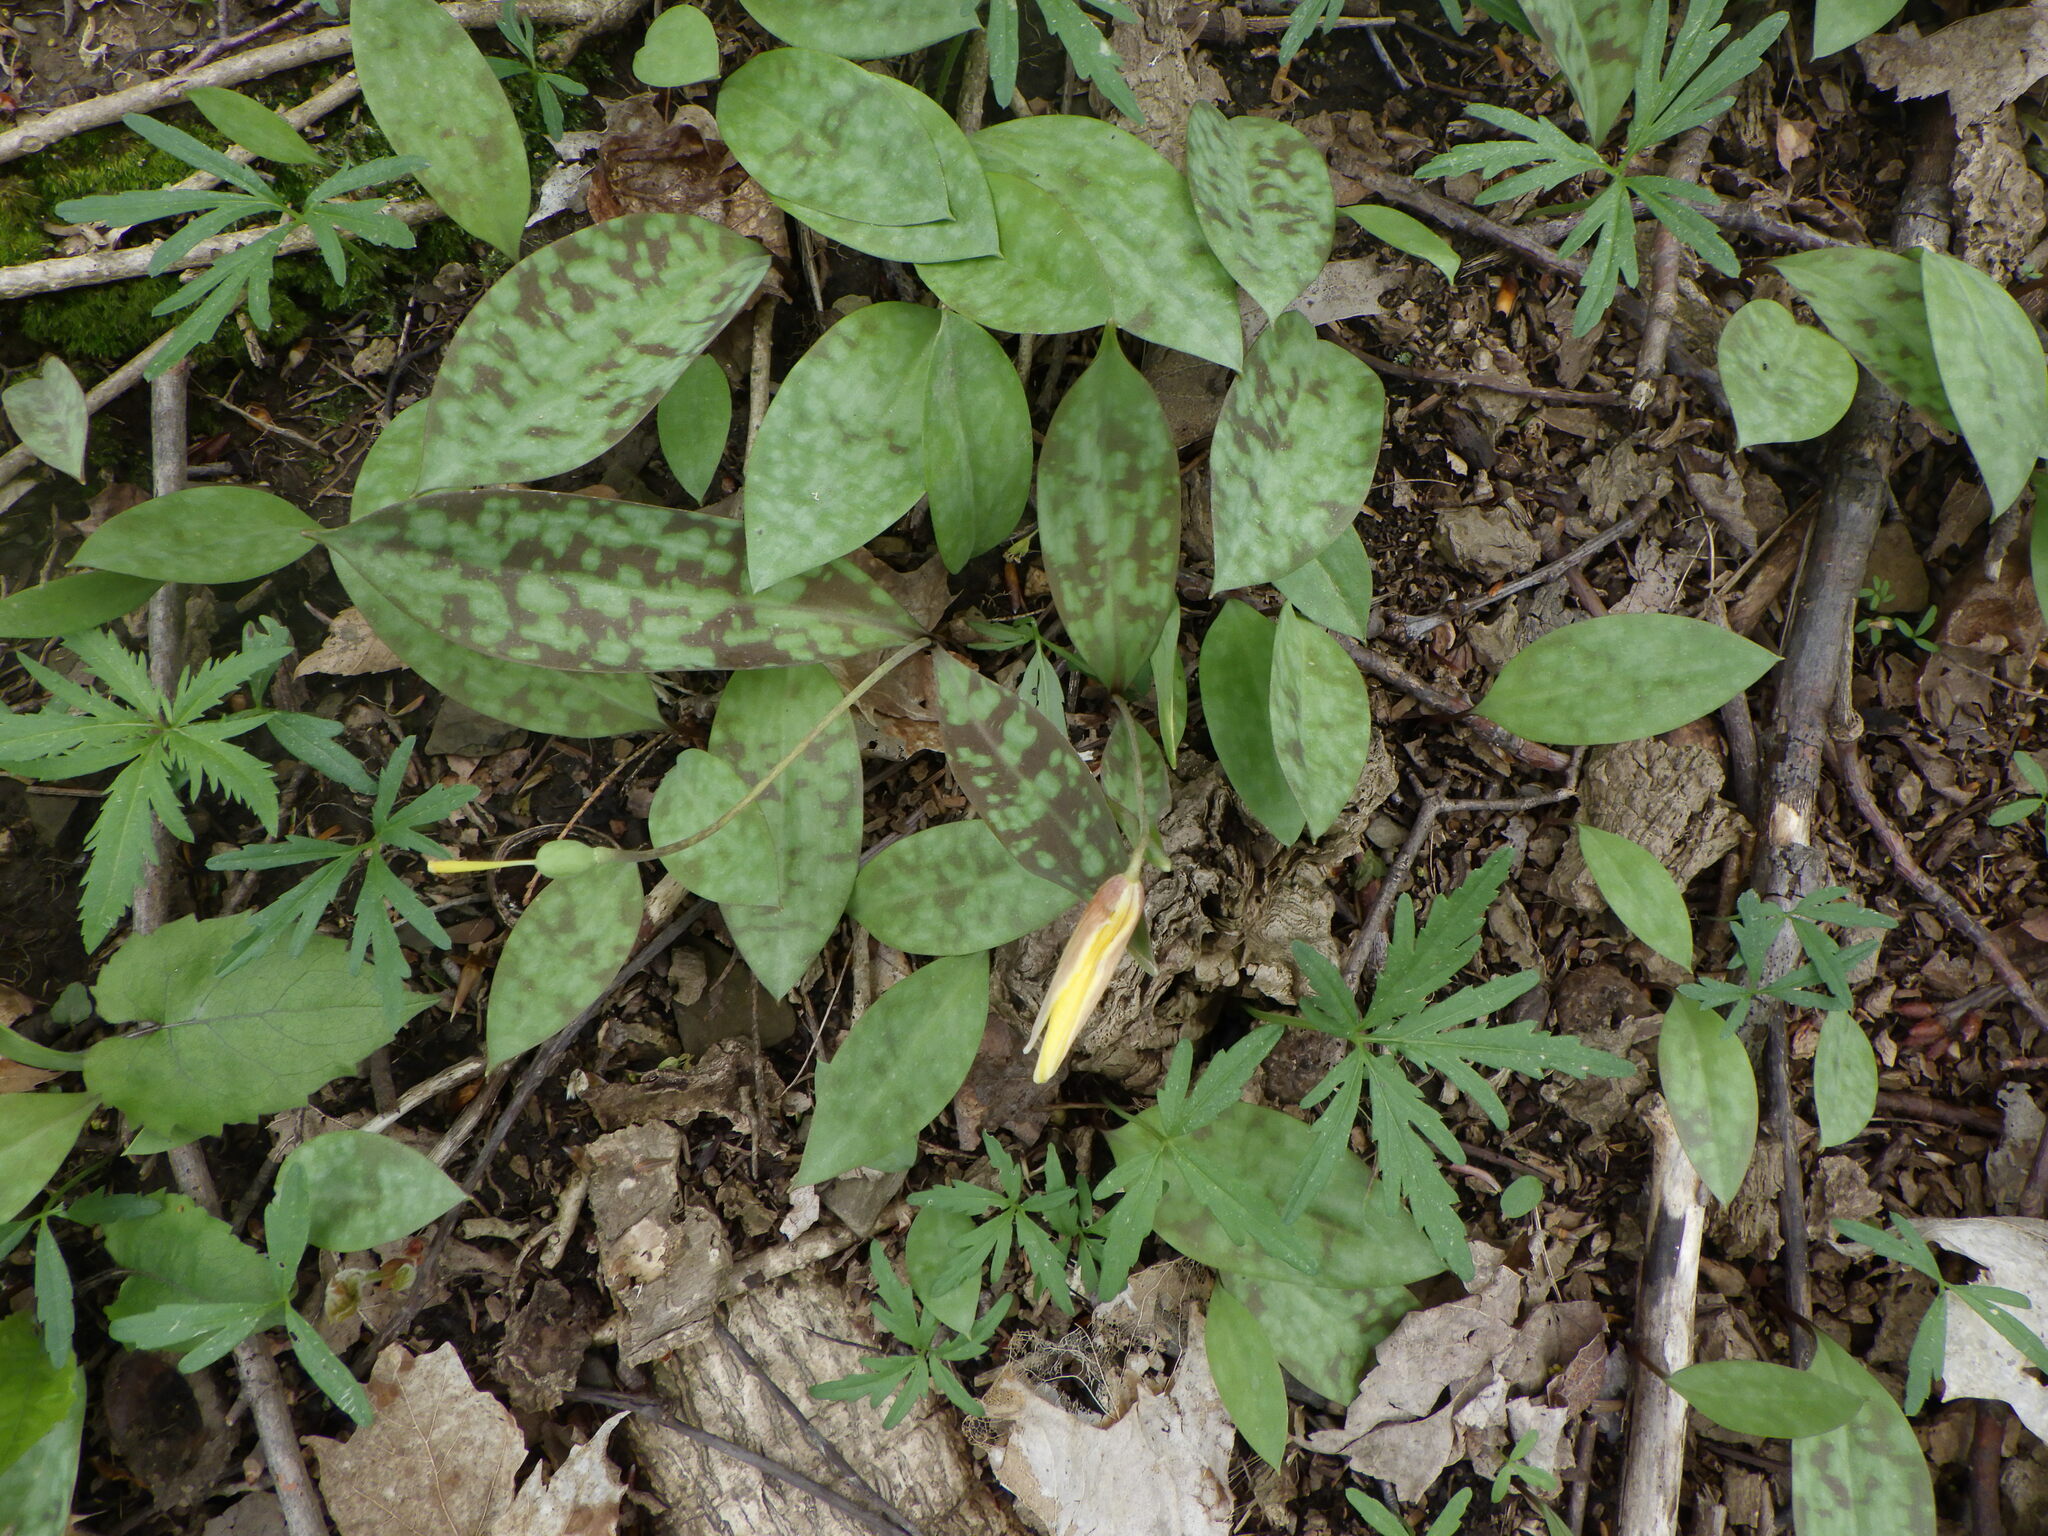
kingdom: Plantae
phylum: Tracheophyta
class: Liliopsida
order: Liliales
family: Liliaceae
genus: Erythronium
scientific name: Erythronium americanum
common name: Yellow adder's-tongue
